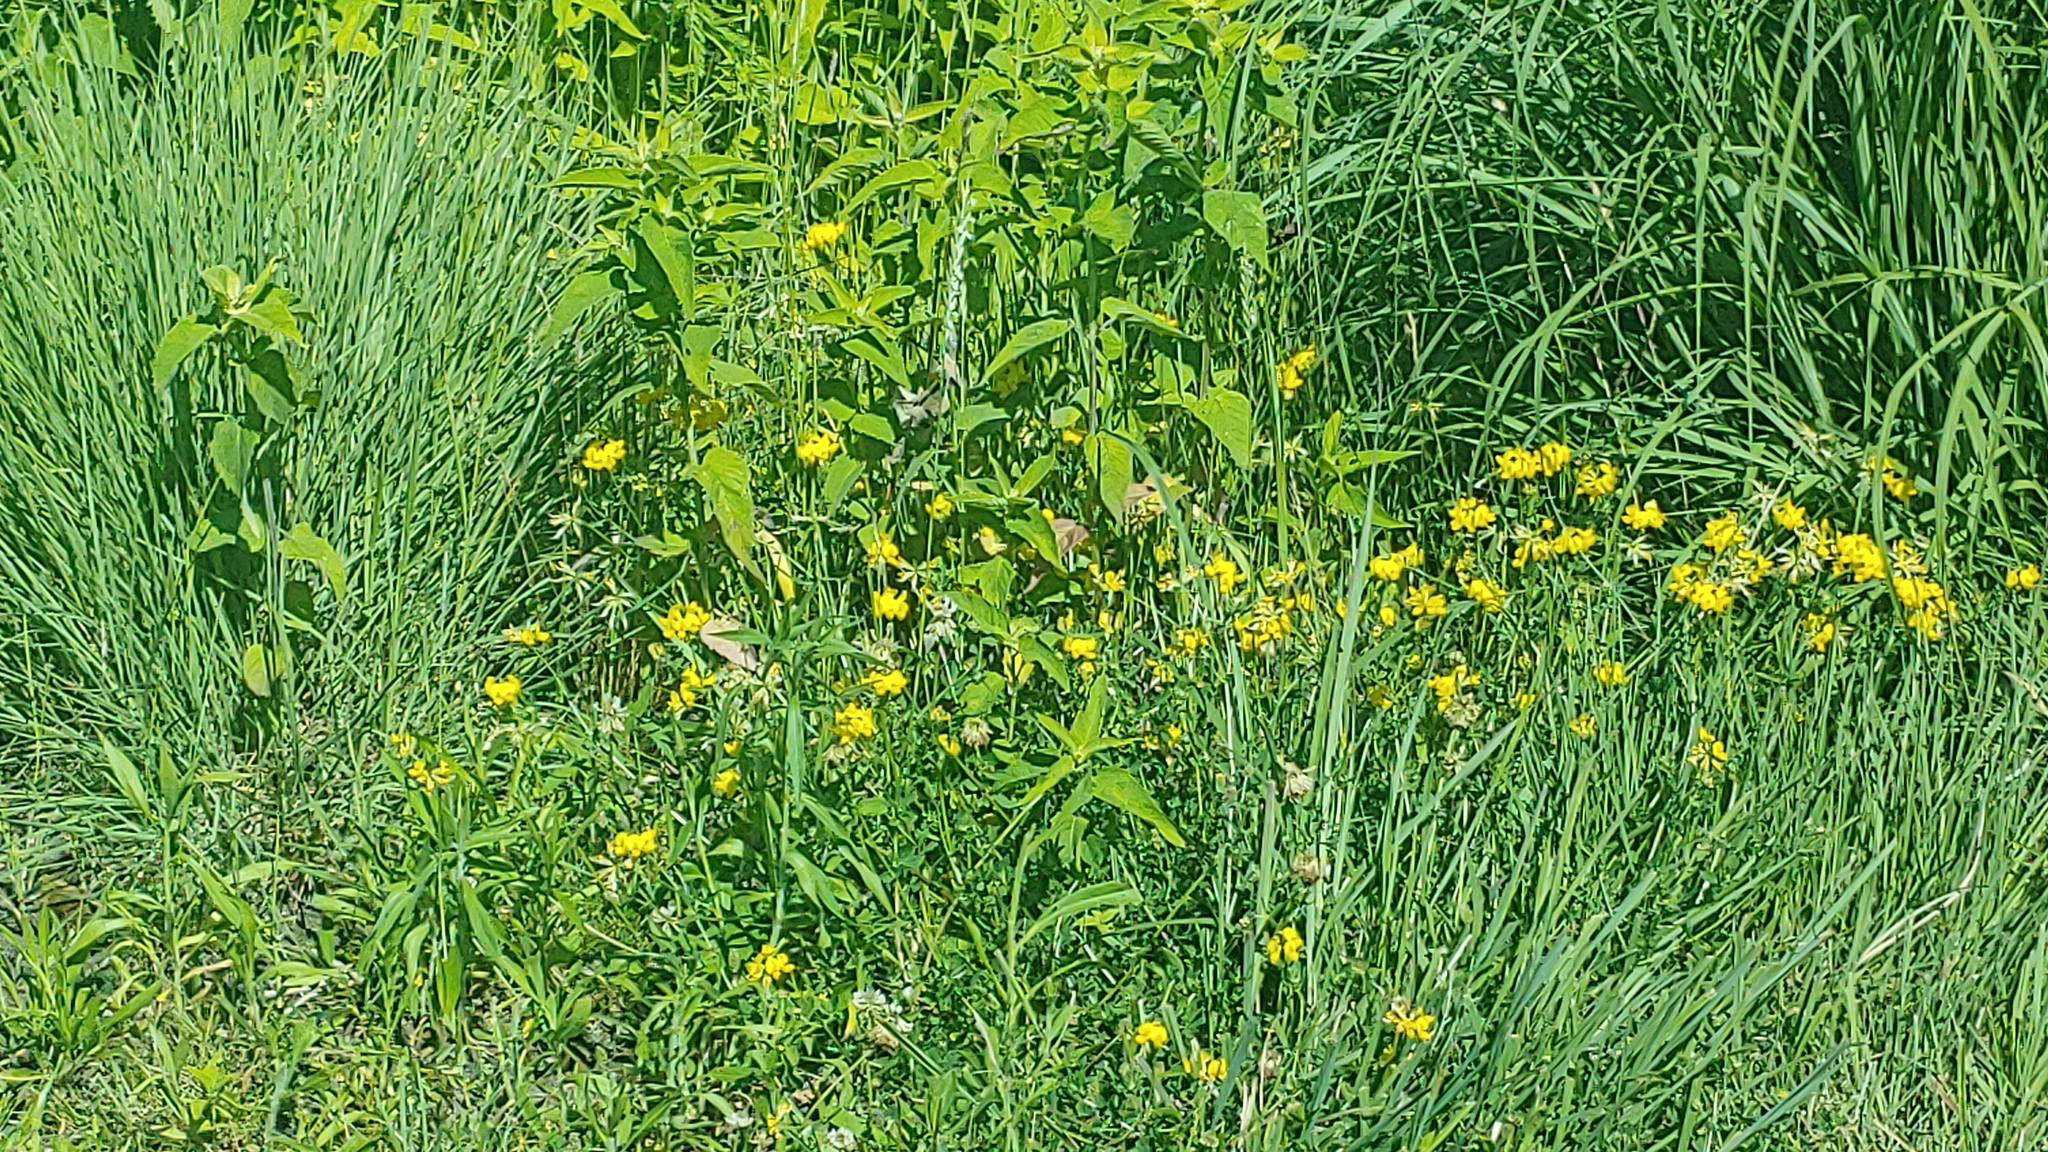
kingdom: Plantae
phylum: Tracheophyta
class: Magnoliopsida
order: Fabales
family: Fabaceae
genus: Lotus
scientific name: Lotus corniculatus
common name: Common bird's-foot-trefoil
